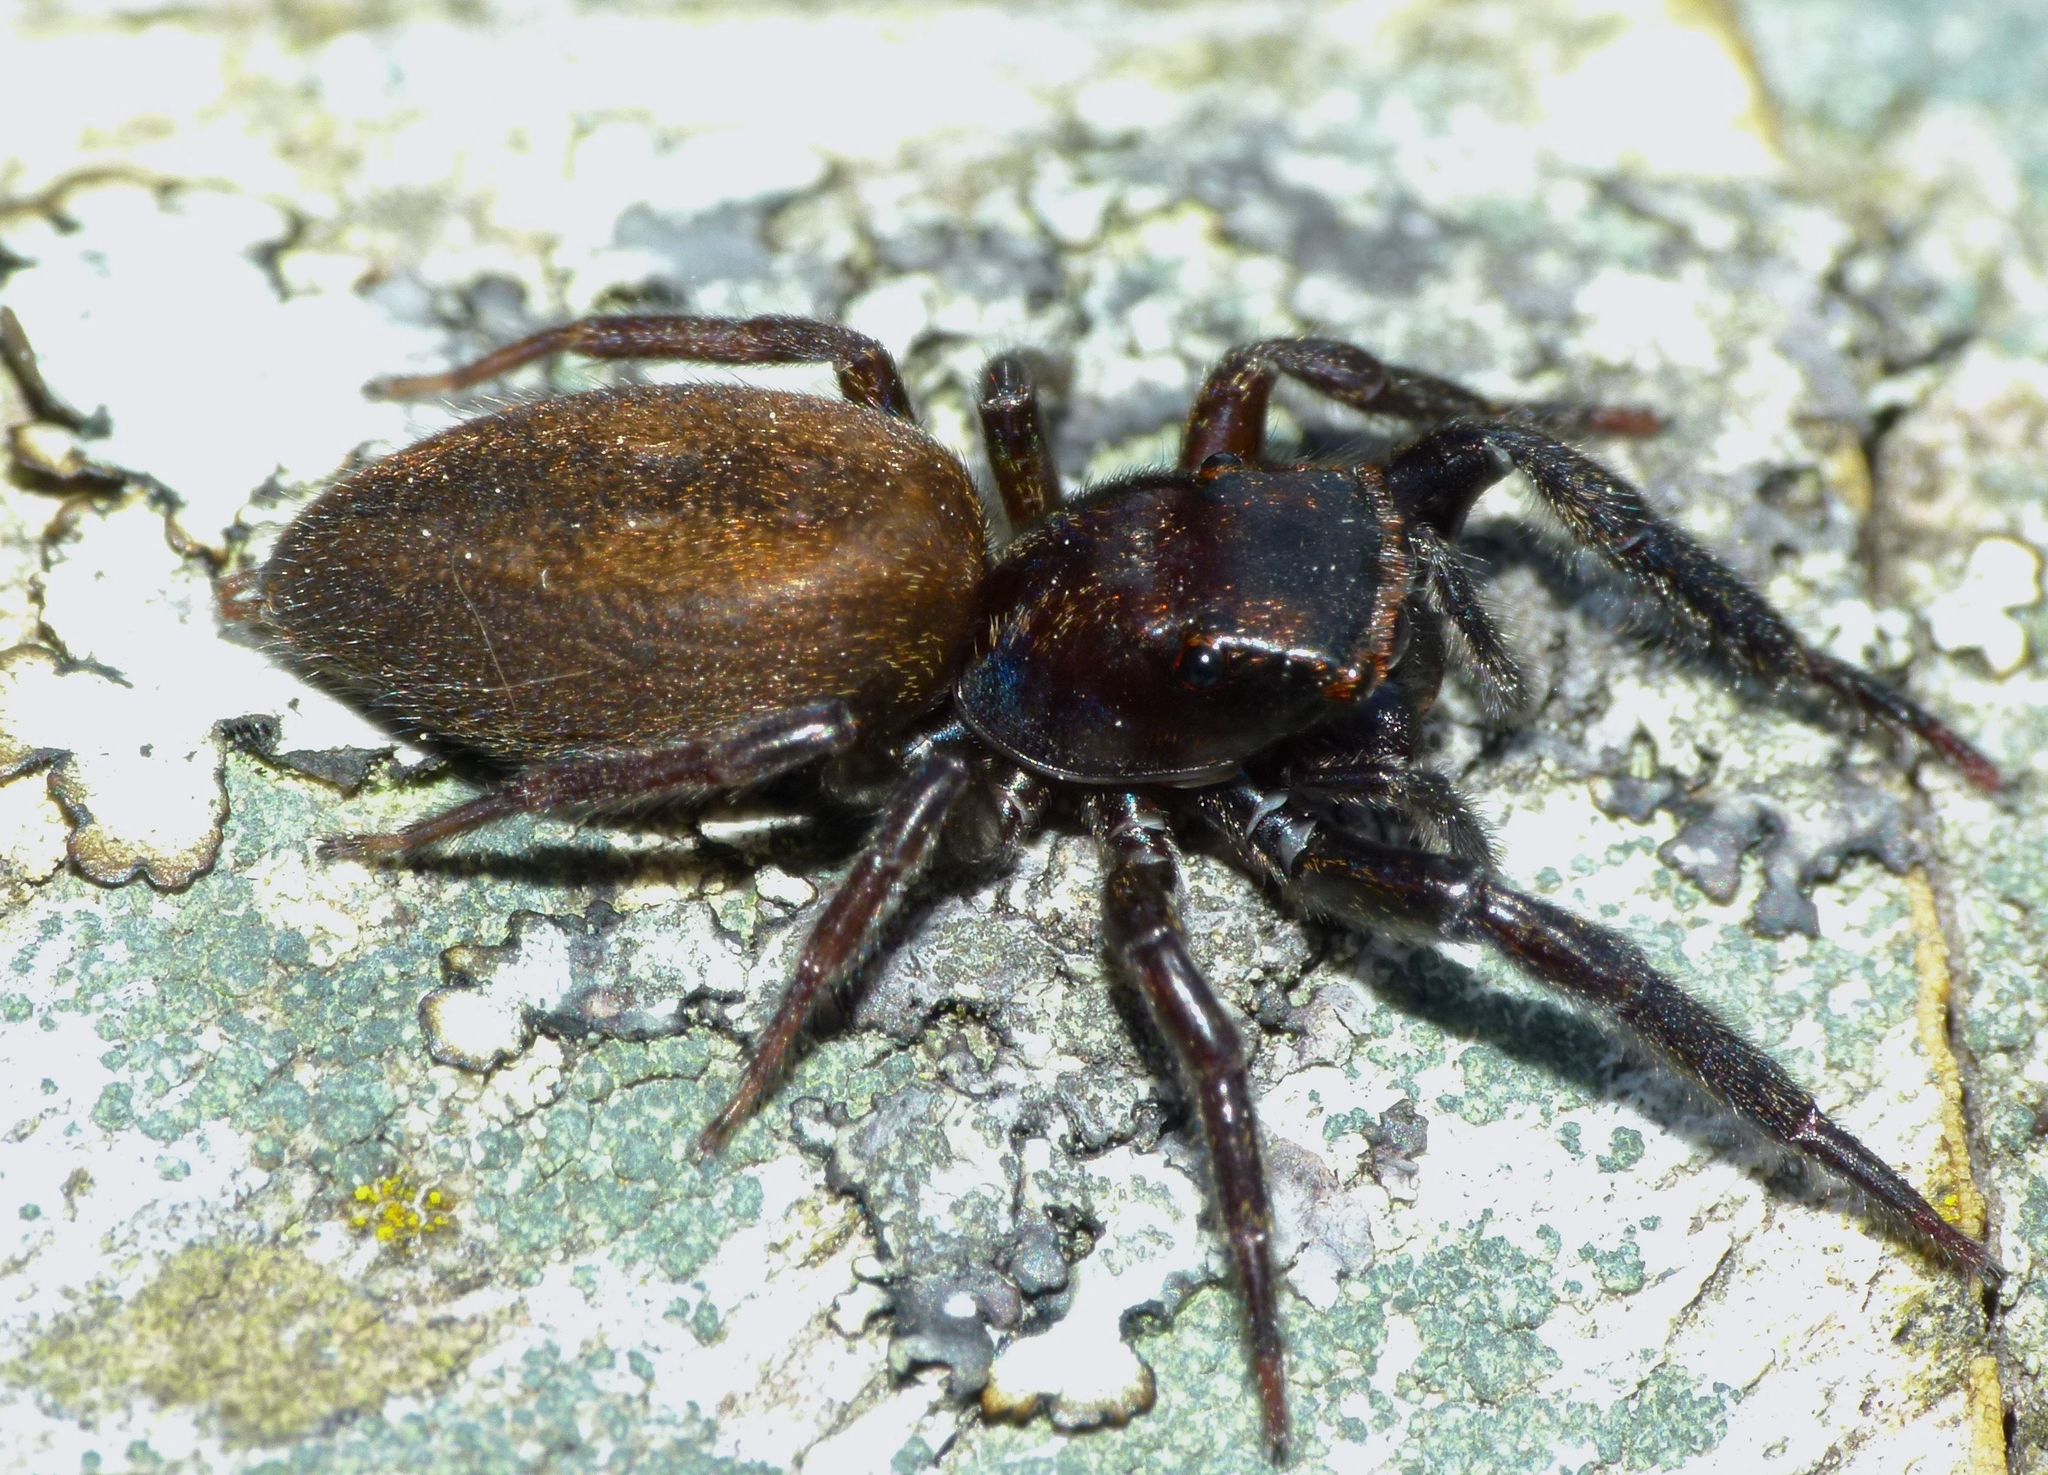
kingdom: Animalia
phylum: Arthropoda
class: Arachnida
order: Araneae
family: Salticidae
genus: Trite
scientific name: Trite auricoma
